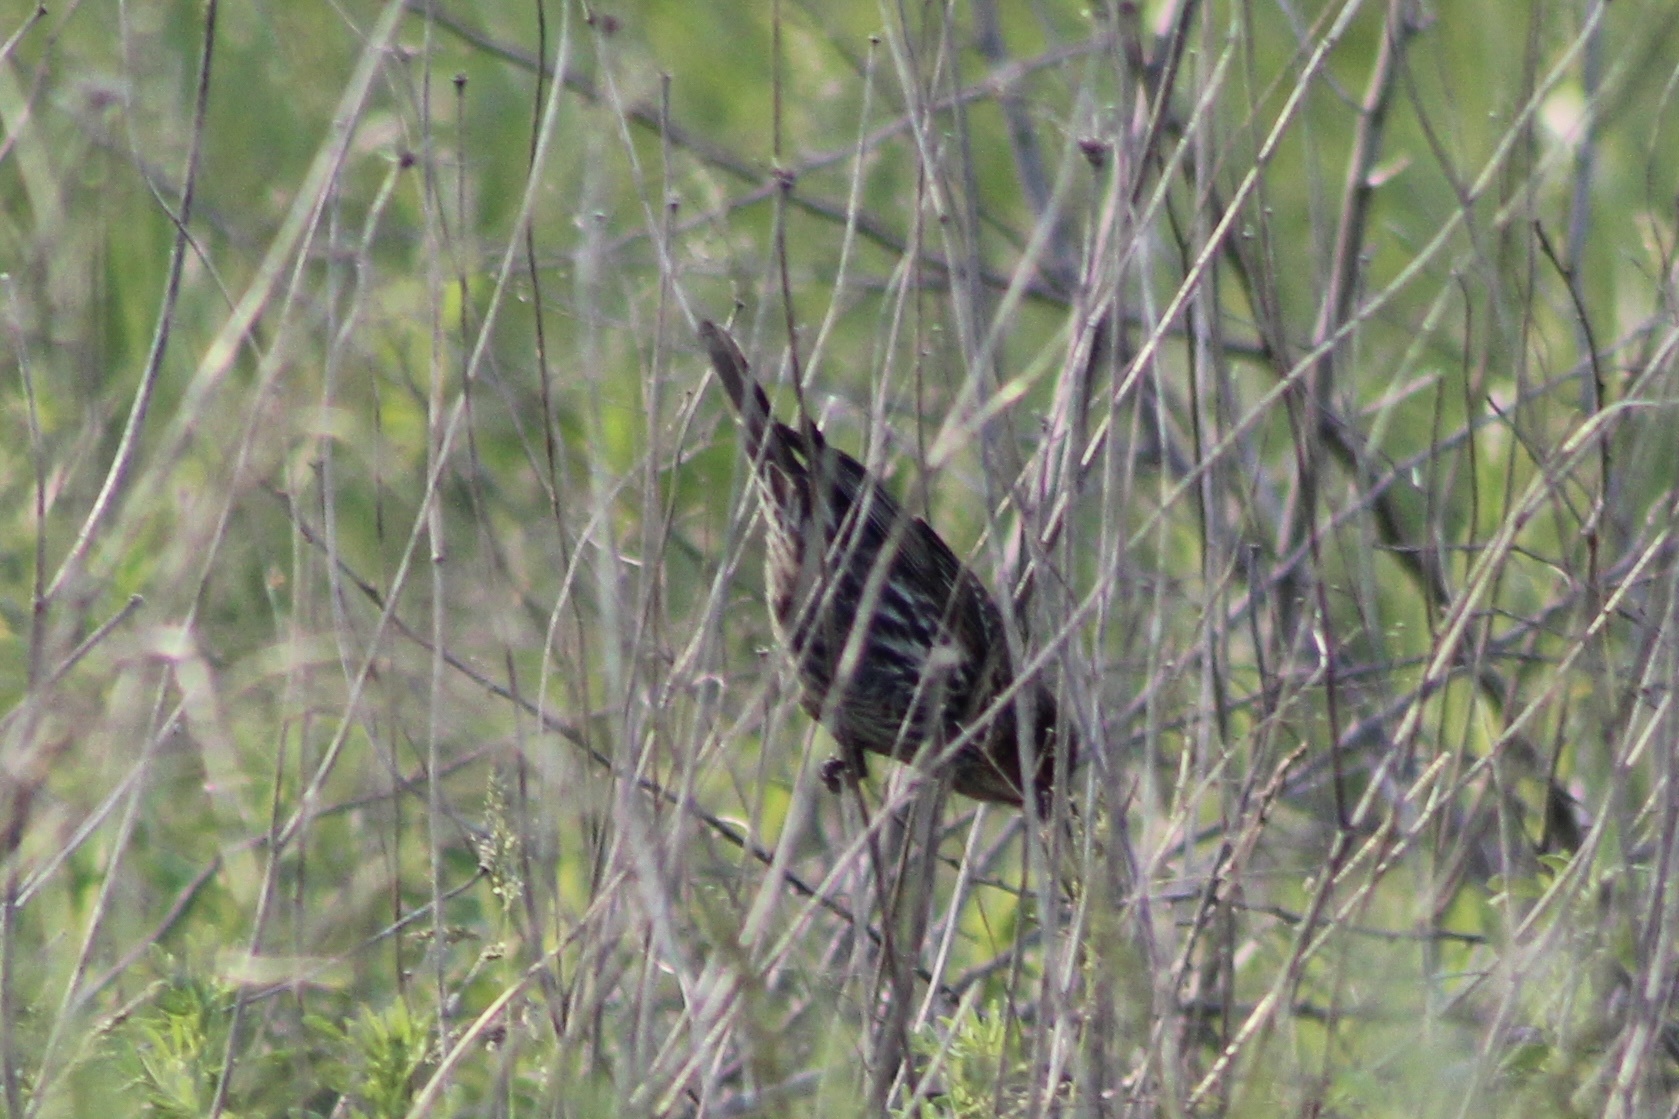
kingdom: Animalia
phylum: Chordata
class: Aves
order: Passeriformes
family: Icteridae
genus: Agelaius
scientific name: Agelaius phoeniceus
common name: Red-winged blackbird
